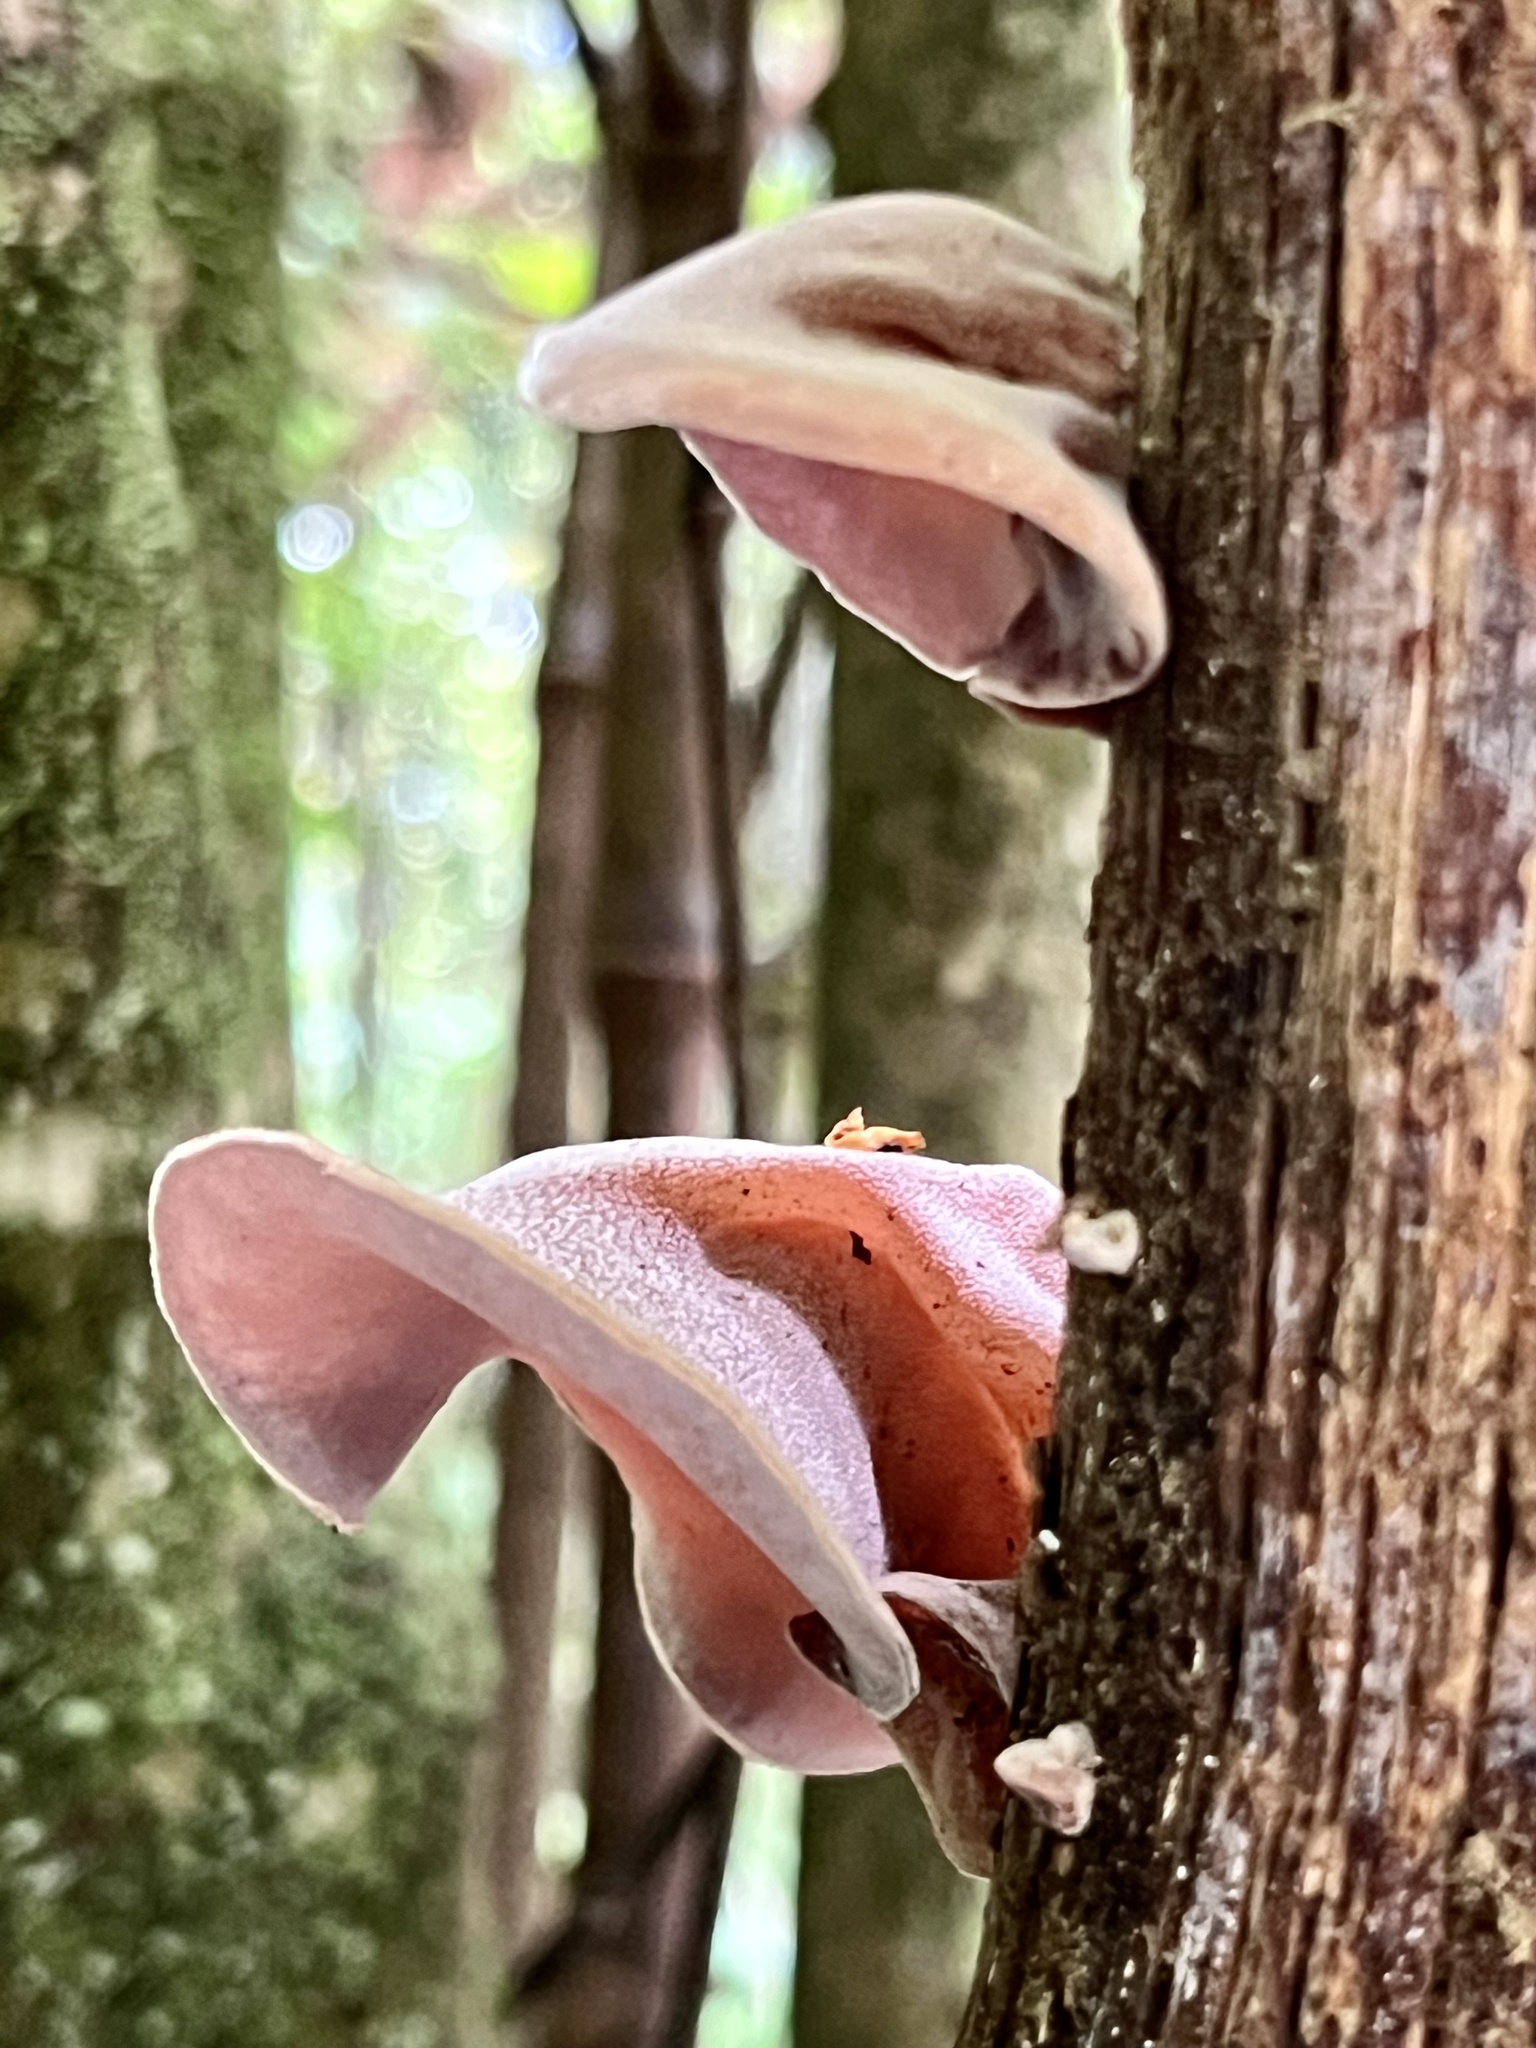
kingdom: Fungi
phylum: Basidiomycota
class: Agaricomycetes
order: Auriculariales
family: Auriculariaceae
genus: Auricularia
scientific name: Auricularia cornea
